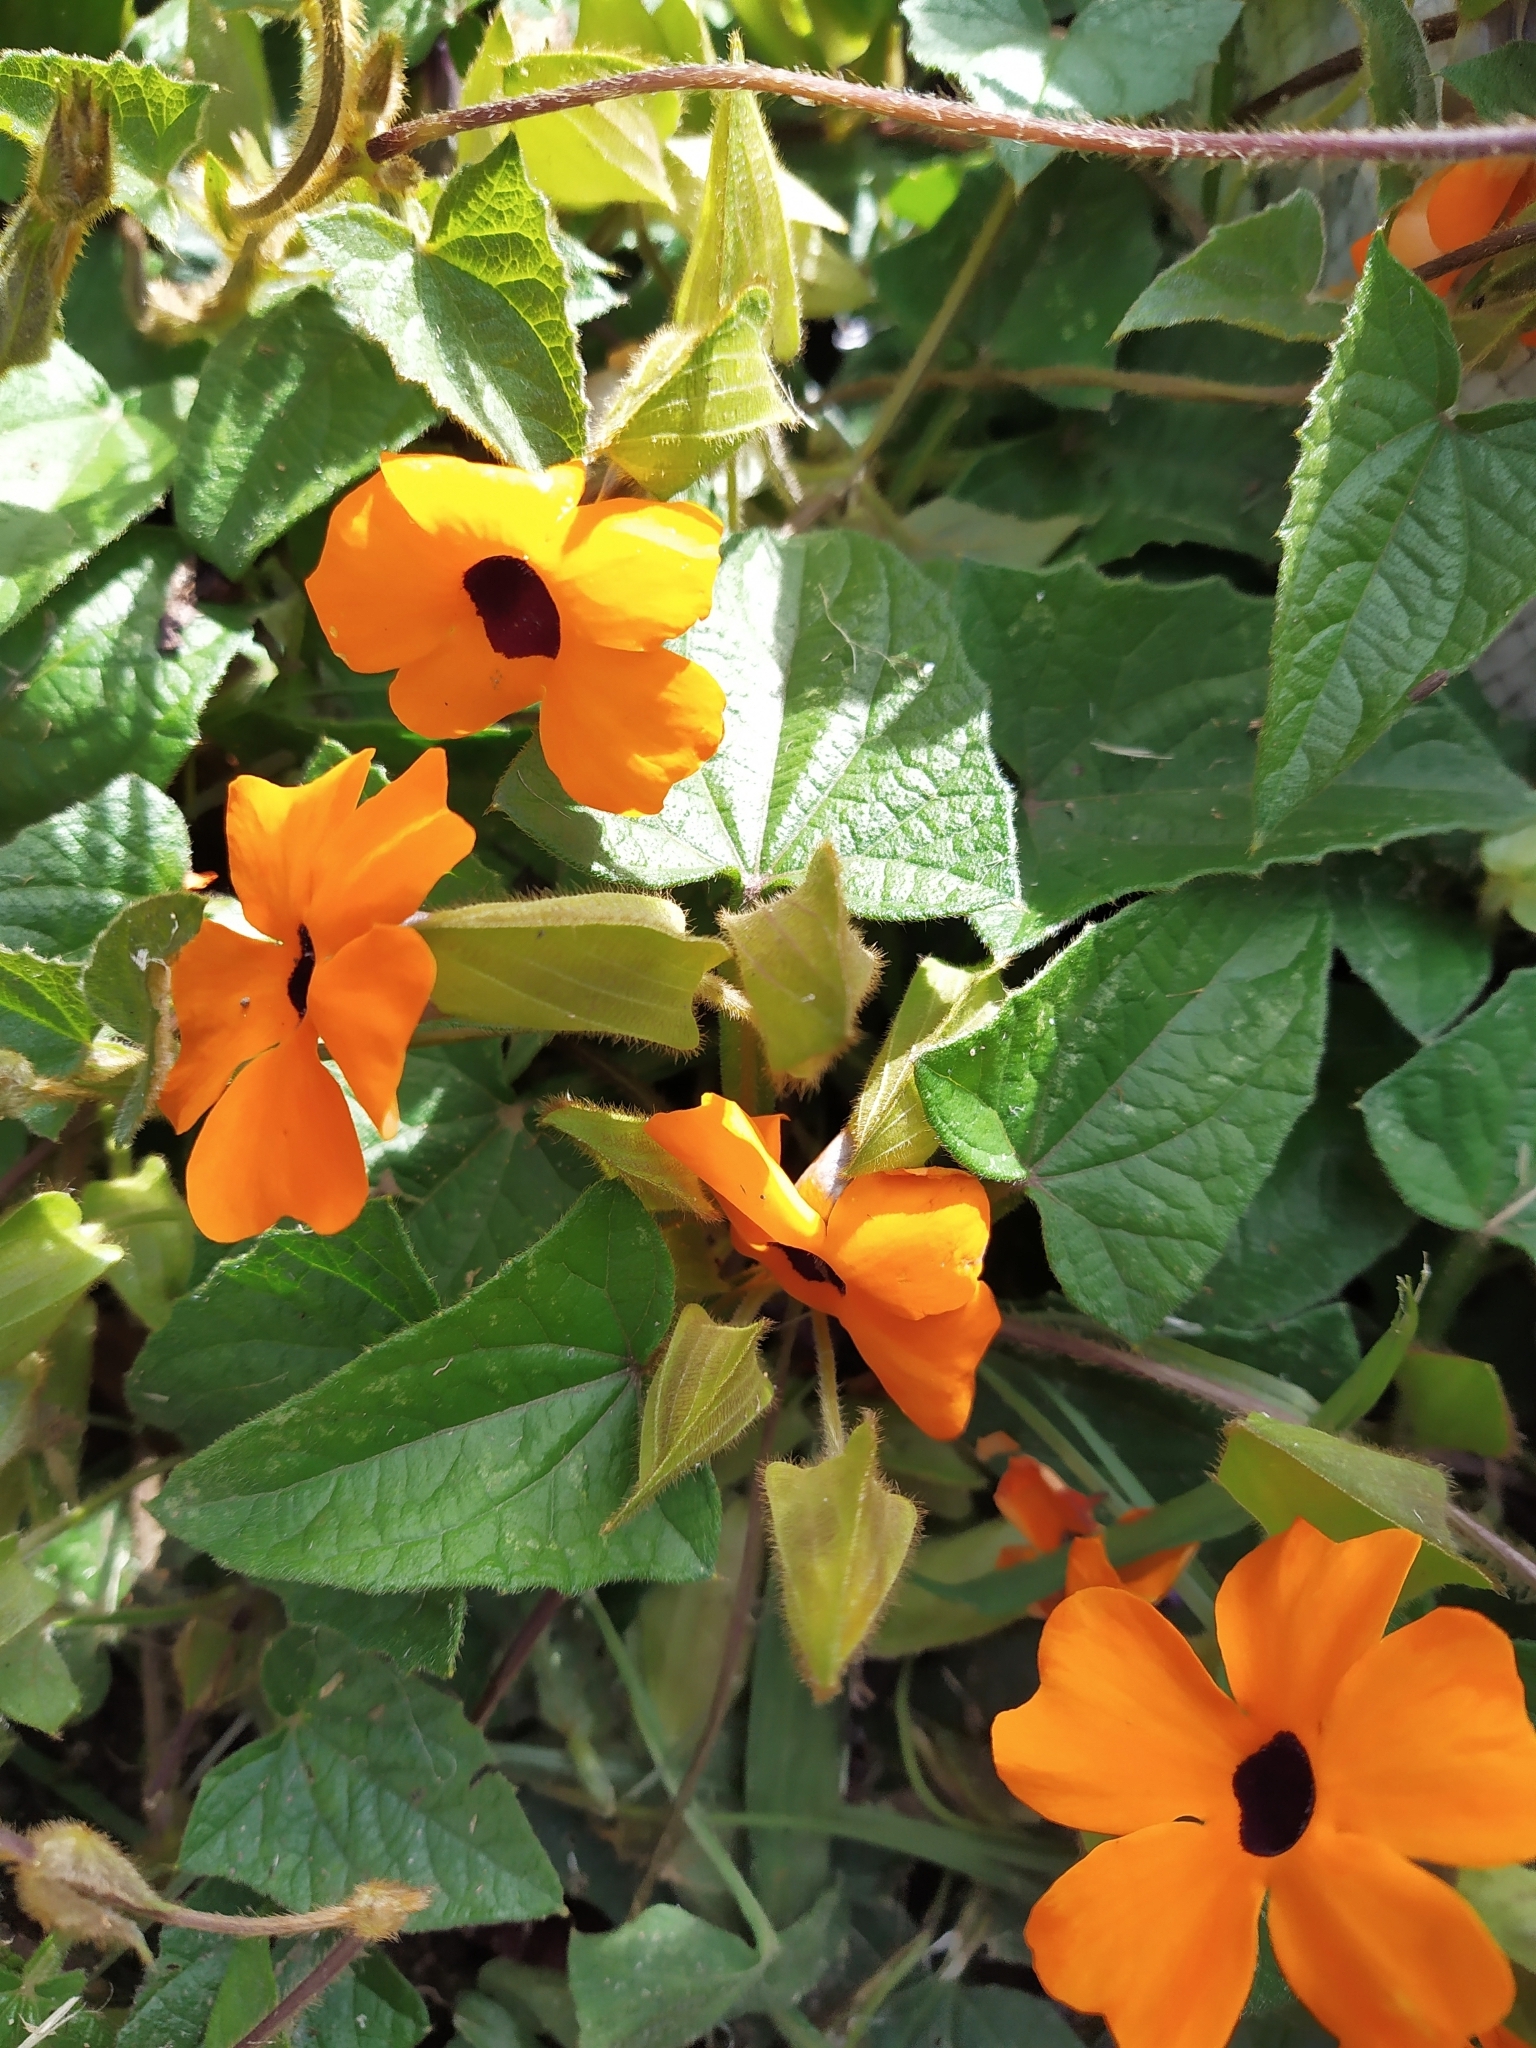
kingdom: Plantae
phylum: Tracheophyta
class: Magnoliopsida
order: Lamiales
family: Acanthaceae
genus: Thunbergia
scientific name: Thunbergia alata
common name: Blackeyed susan vine
